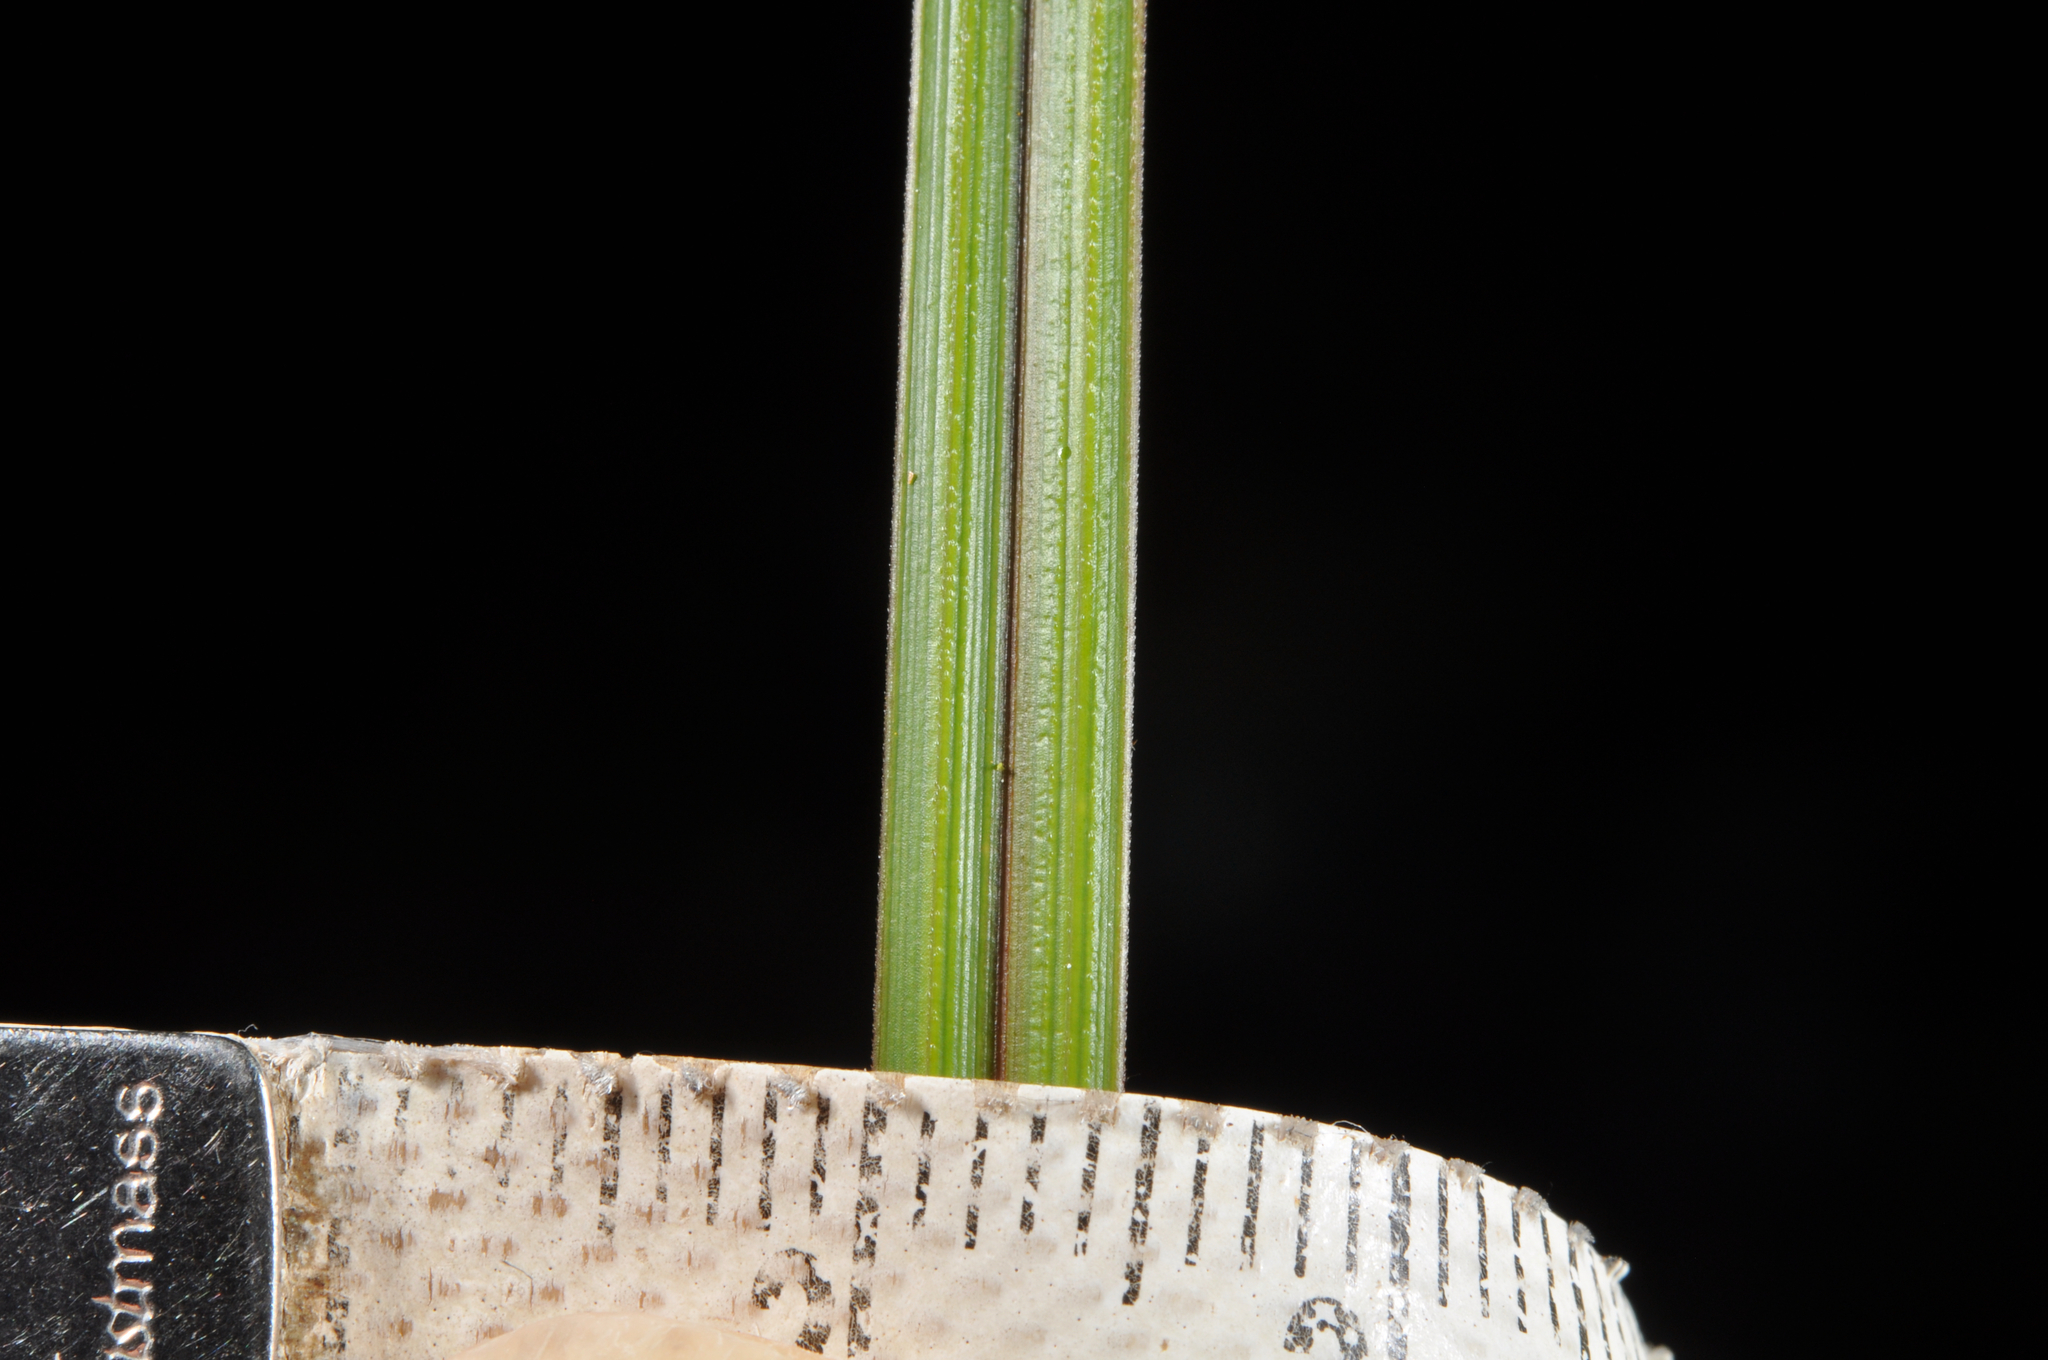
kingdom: Plantae
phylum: Tracheophyta
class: Liliopsida
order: Poales
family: Cyperaceae
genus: Carex
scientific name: Carex dissita
